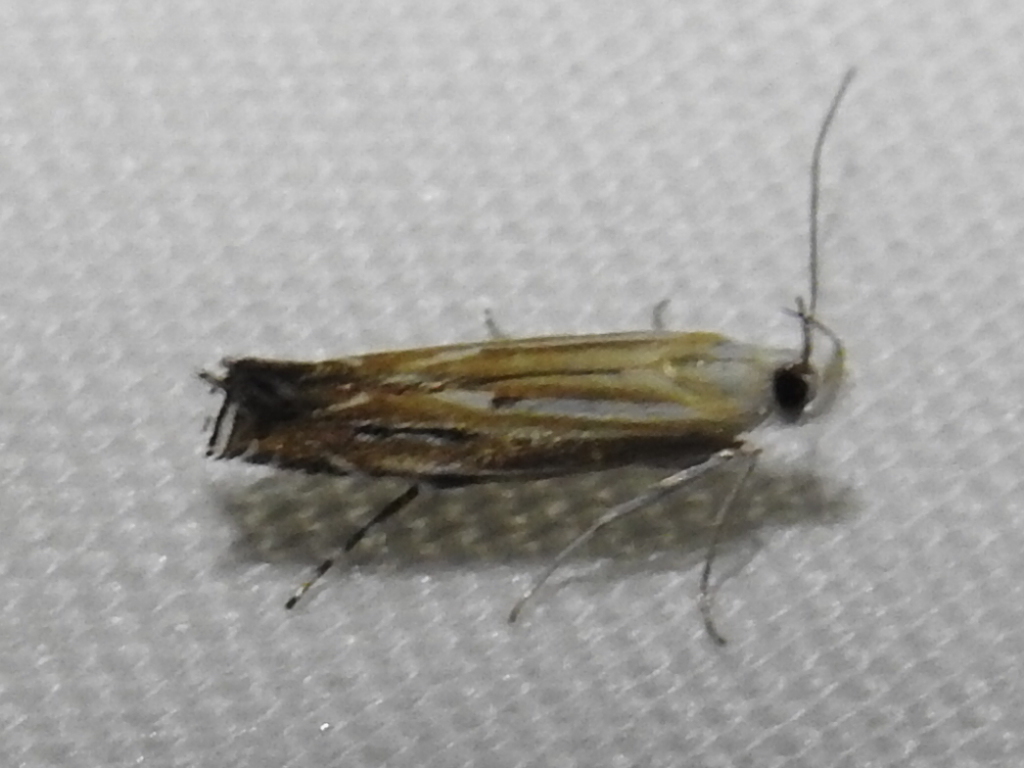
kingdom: Animalia
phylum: Arthropoda
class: Insecta
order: Lepidoptera
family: Gelechiidae
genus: Polyhymno
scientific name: Polyhymno luteostrigella
